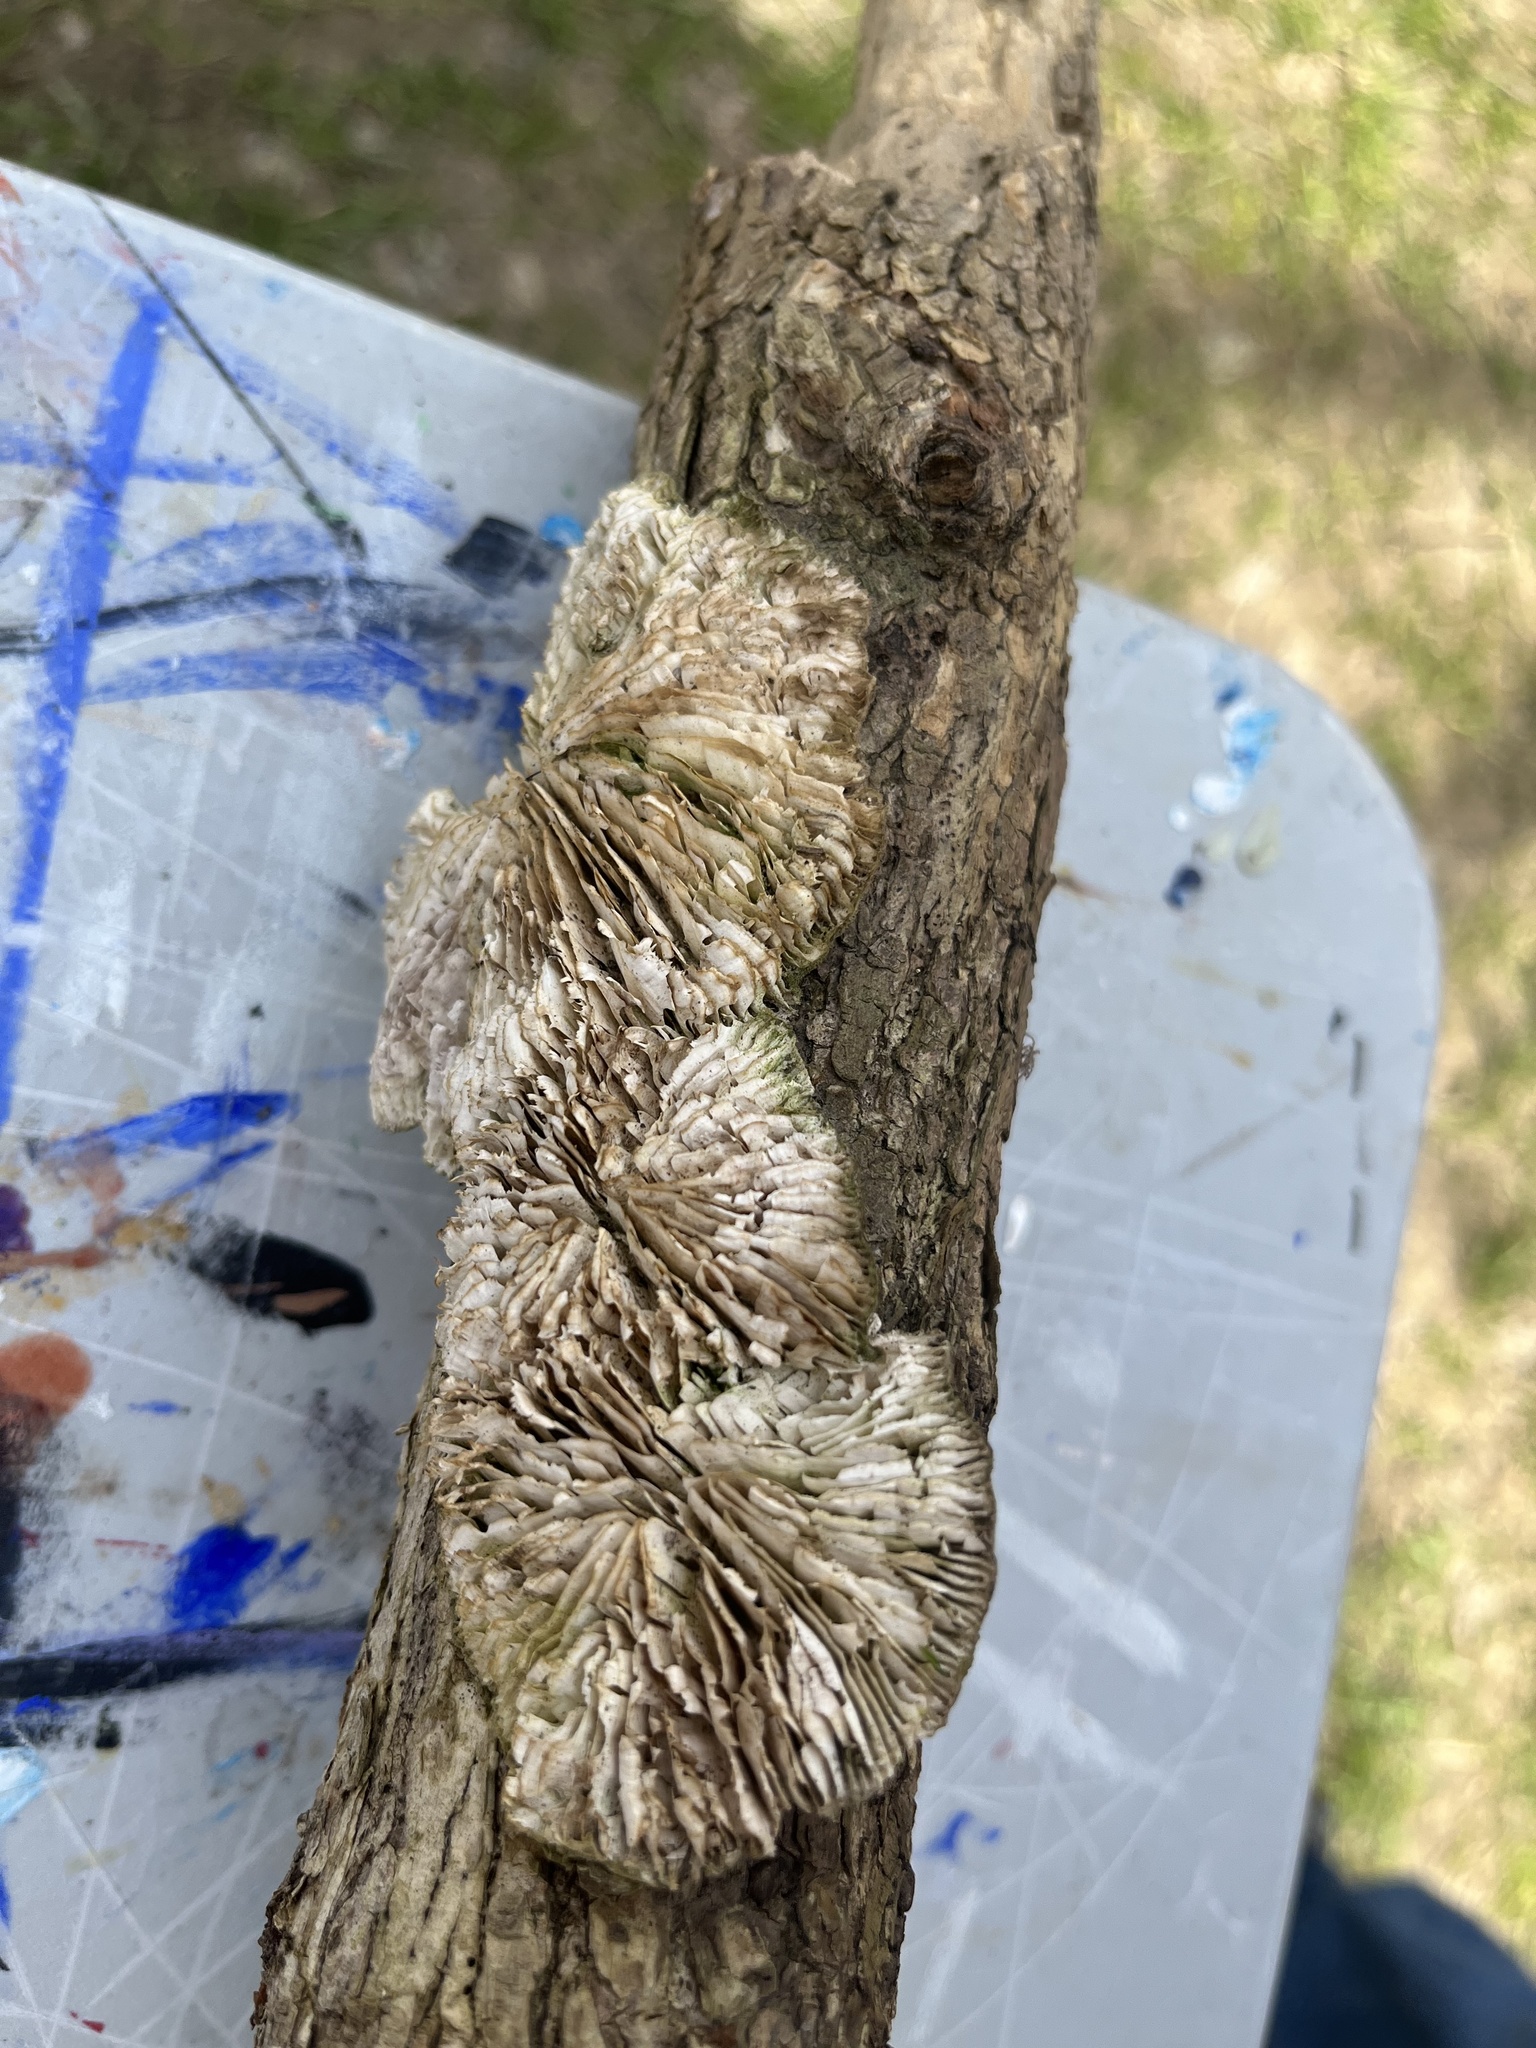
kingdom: Fungi
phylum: Basidiomycota
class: Agaricomycetes
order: Polyporales
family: Polyporaceae
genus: Lenzites
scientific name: Lenzites betulinus
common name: Birch mazegill
